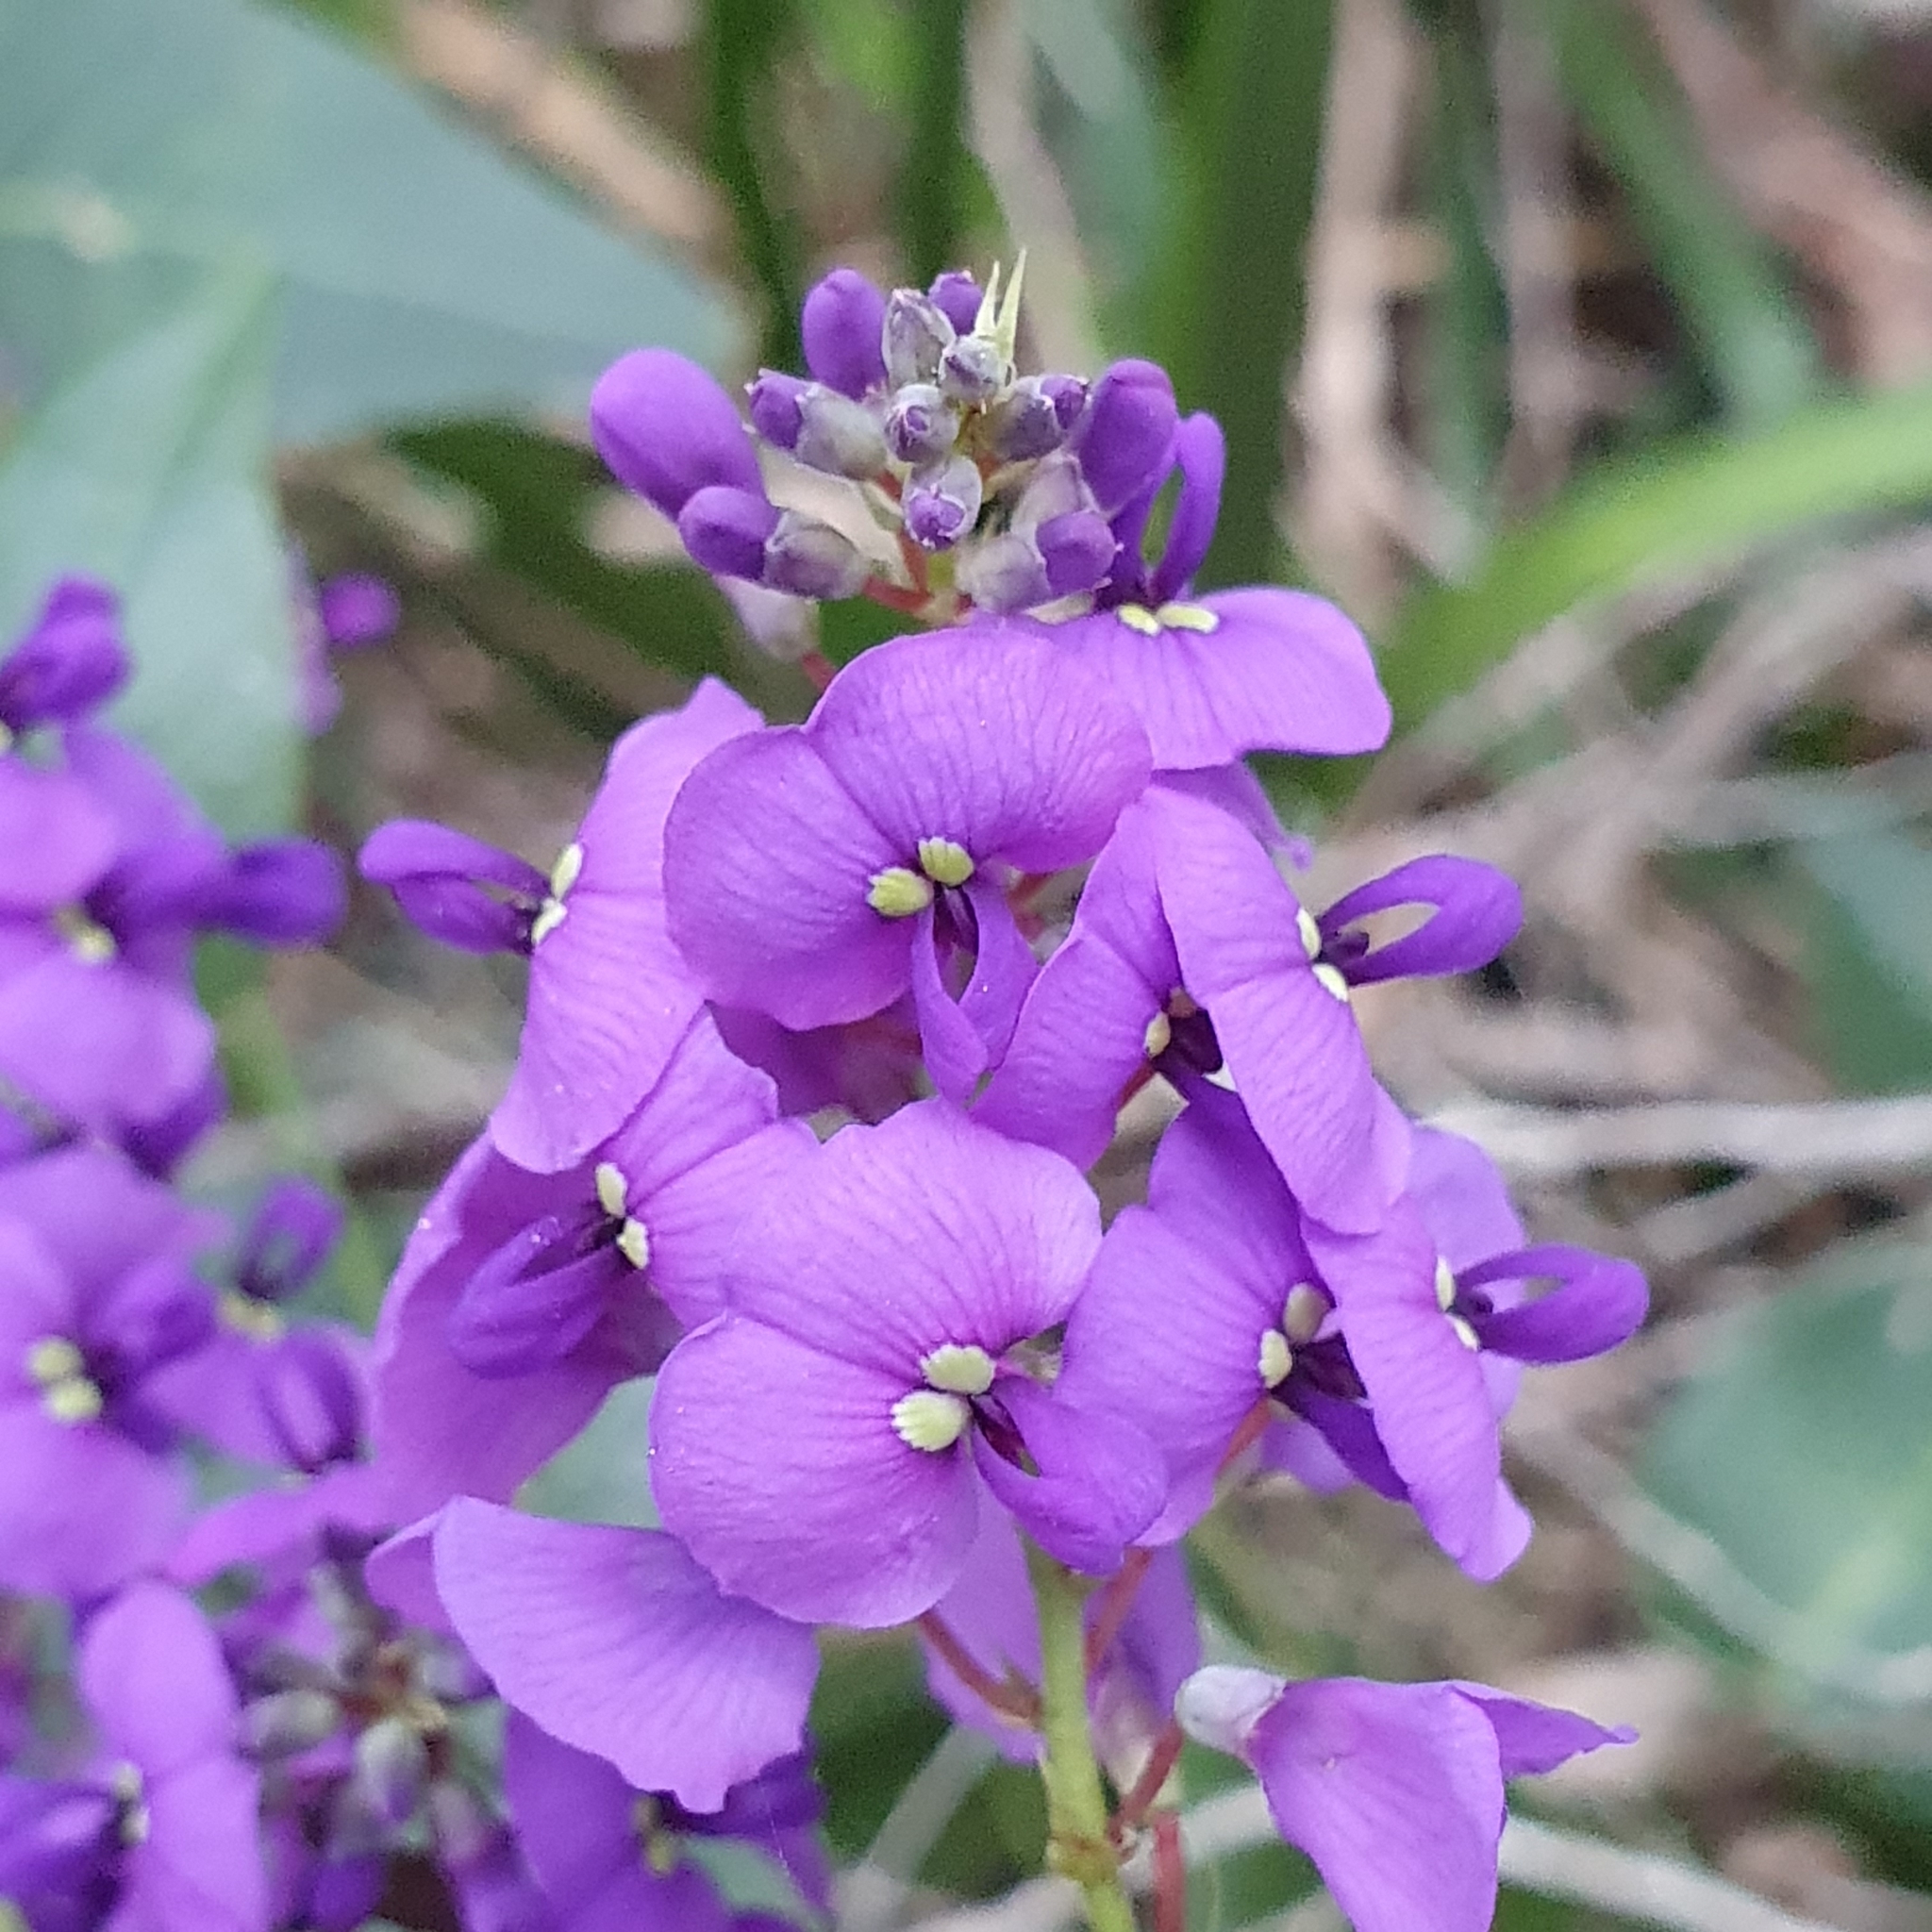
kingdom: Plantae
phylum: Tracheophyta
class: Magnoliopsida
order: Fabales
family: Fabaceae
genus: Hardenbergia
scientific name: Hardenbergia violacea
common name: Coral-pea
